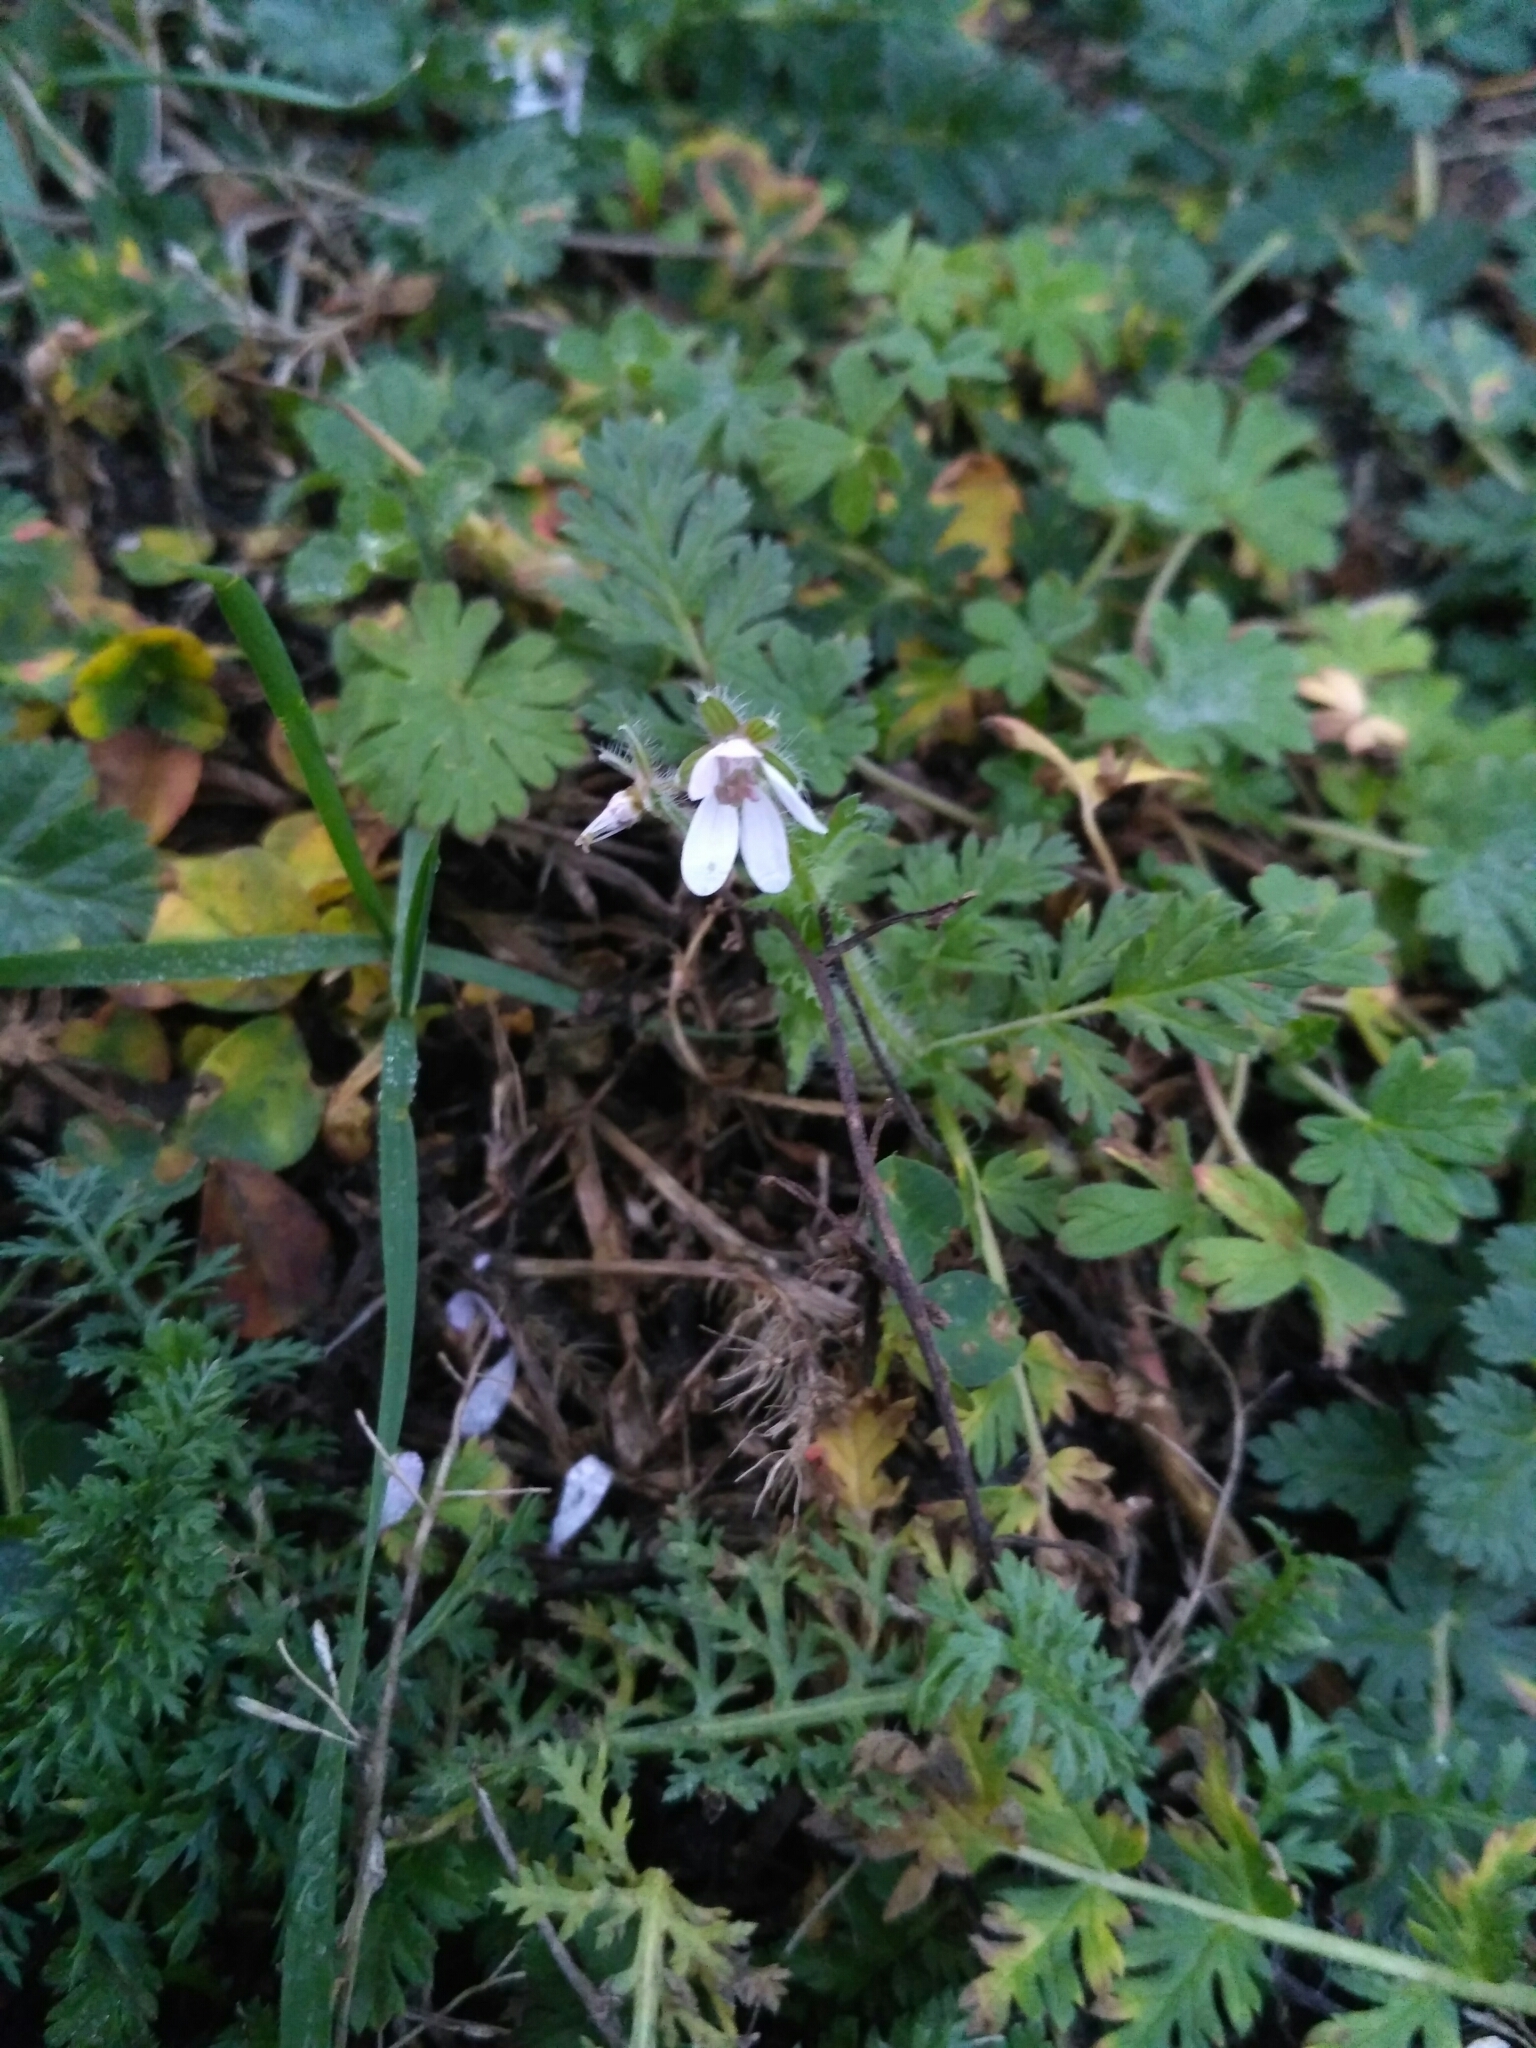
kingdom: Plantae
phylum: Tracheophyta
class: Magnoliopsida
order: Geraniales
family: Geraniaceae
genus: Erodium
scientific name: Erodium cicutarium
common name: Common stork's-bill
